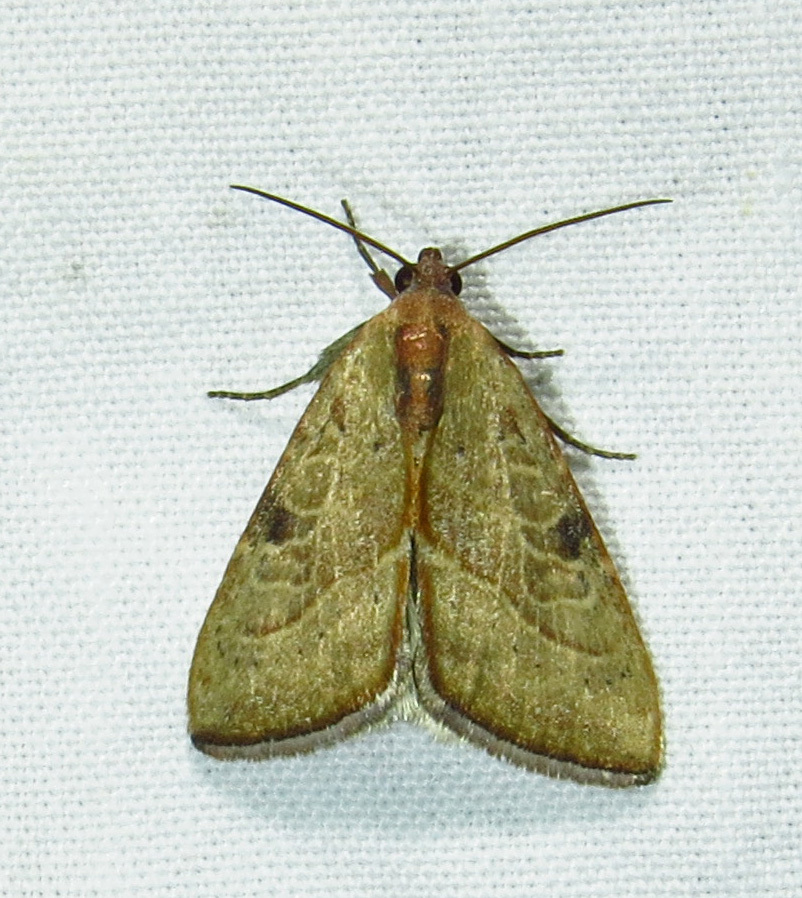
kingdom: Animalia
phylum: Arthropoda
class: Insecta
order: Lepidoptera
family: Noctuidae
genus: Galgula
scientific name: Galgula partita
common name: Wedgeling
